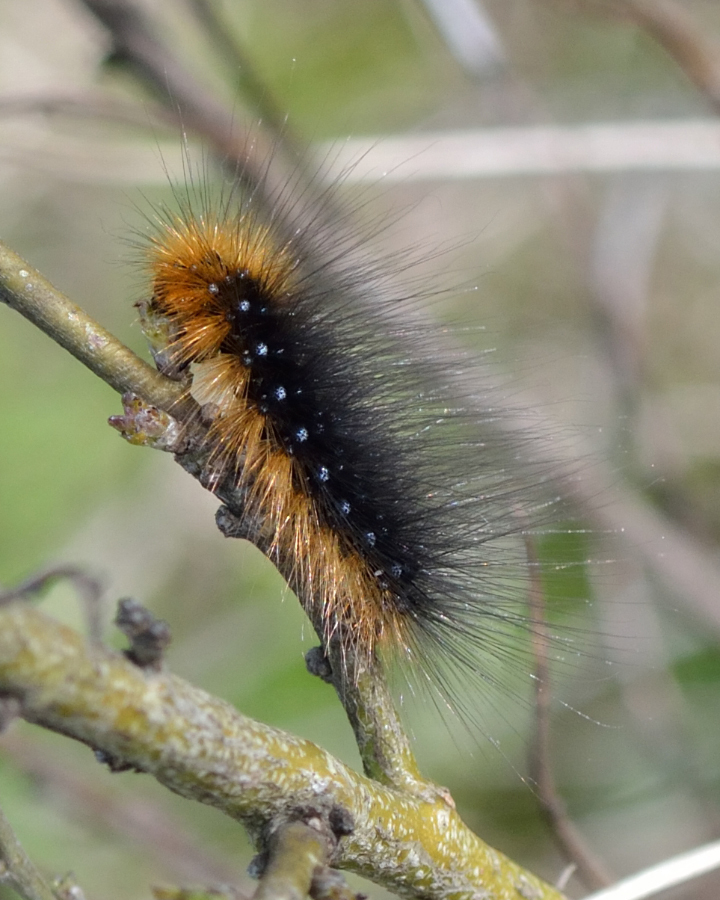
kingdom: Animalia
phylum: Arthropoda
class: Insecta
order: Lepidoptera
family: Erebidae
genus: Arctia
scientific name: Arctia caja
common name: Garden tiger
